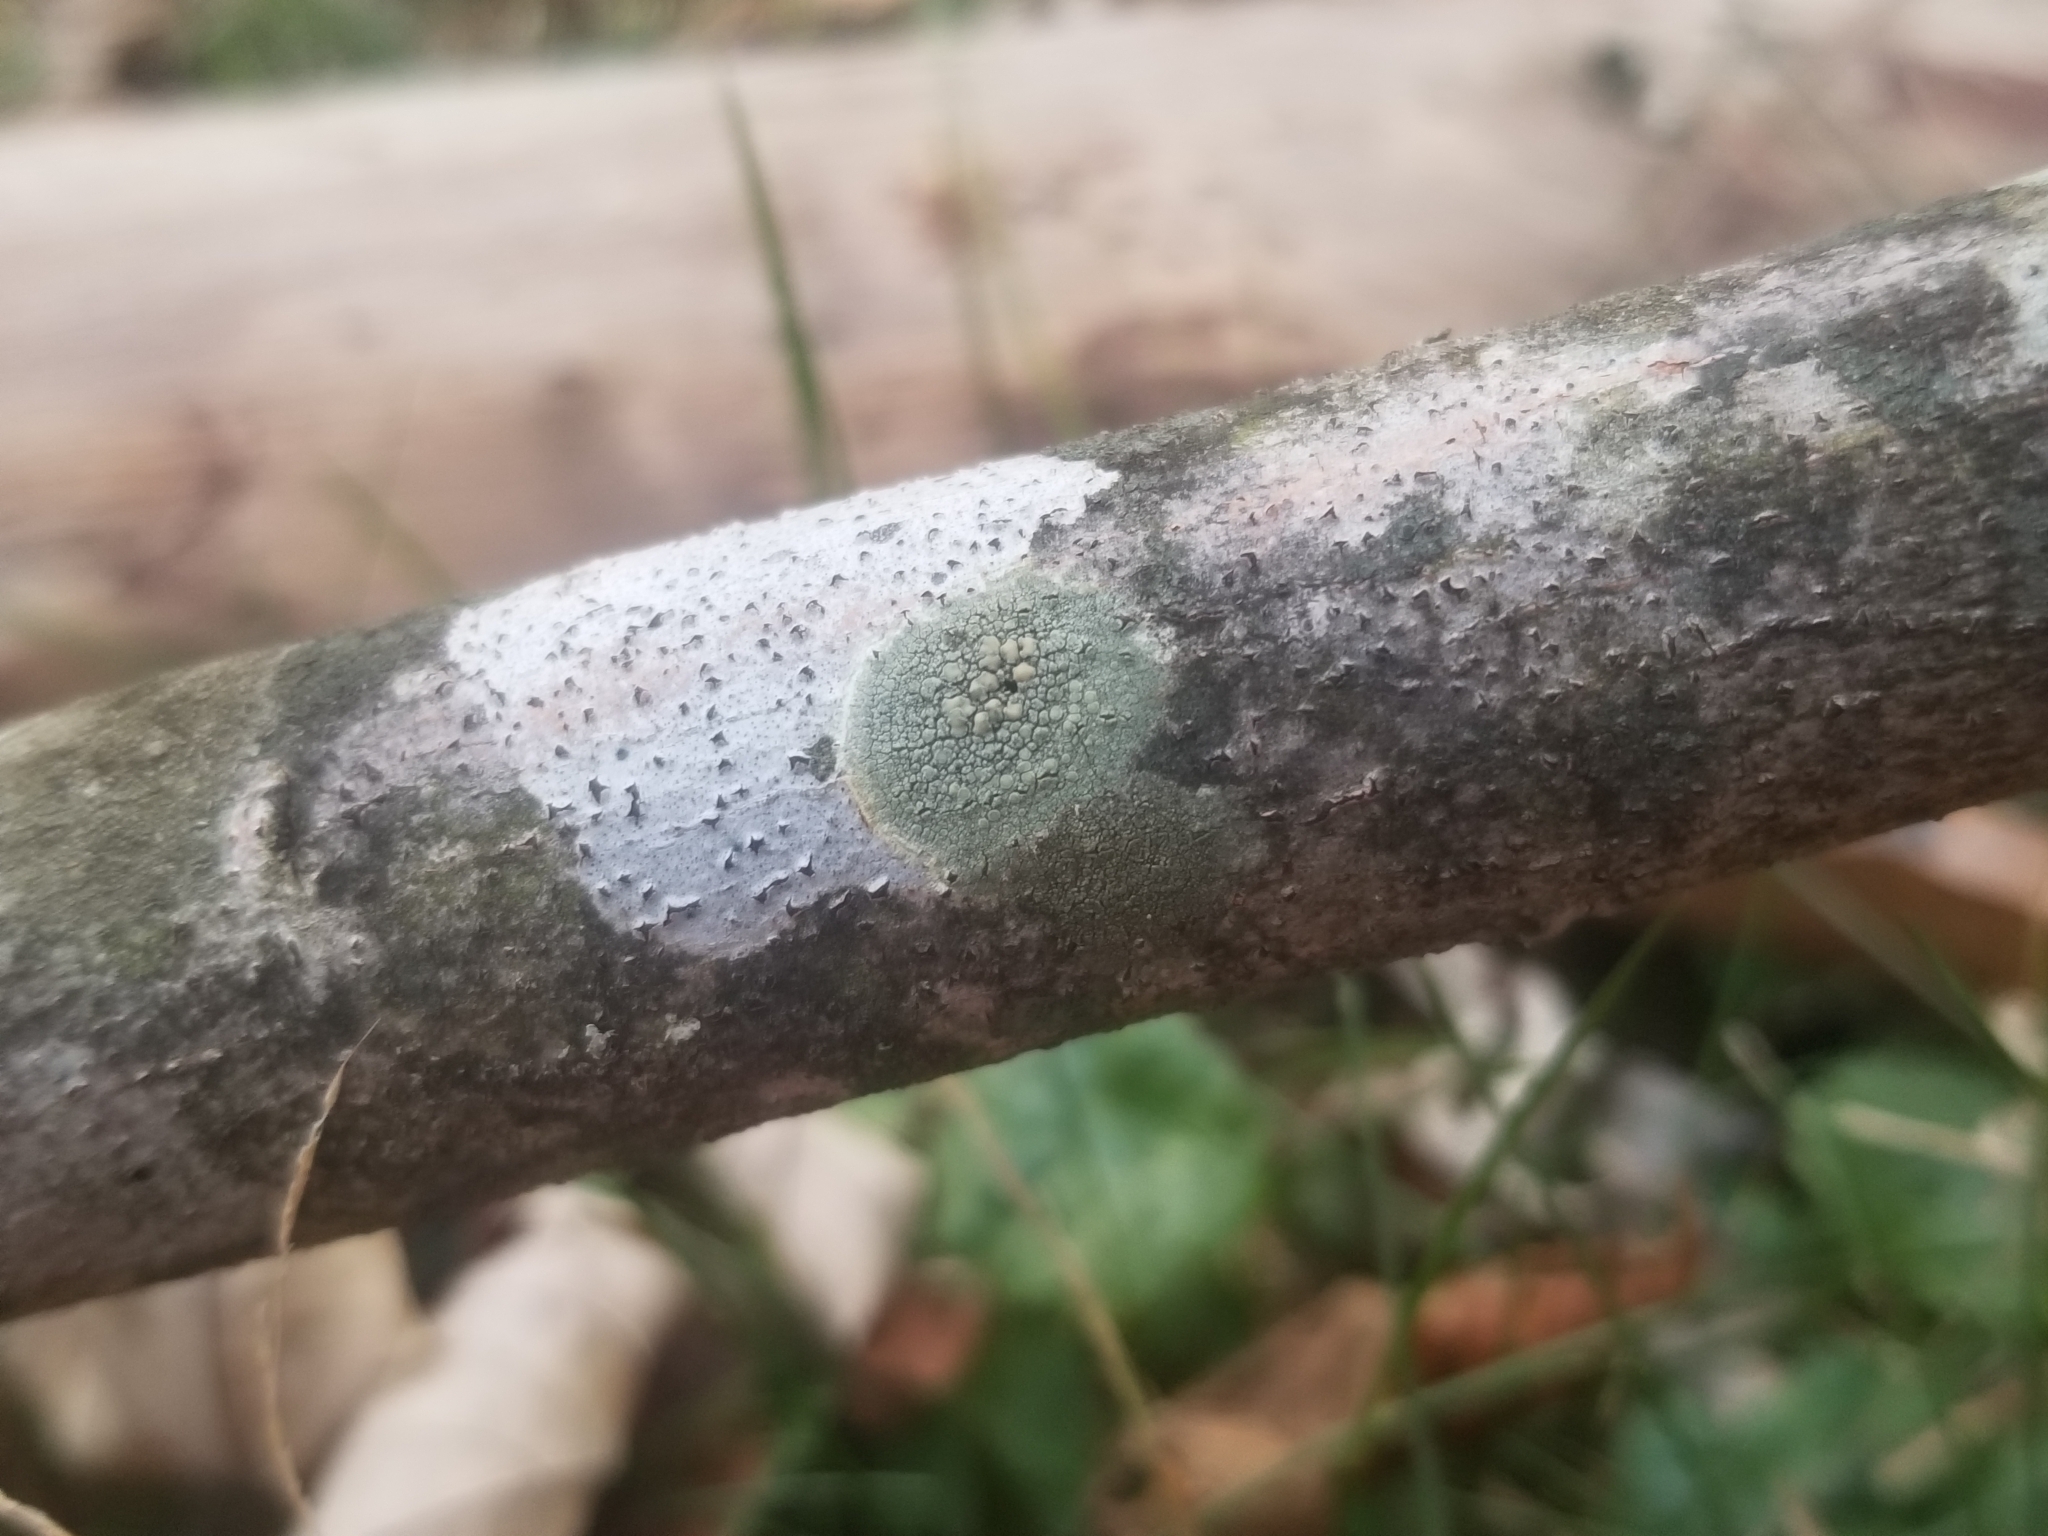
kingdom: Fungi
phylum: Ascomycota
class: Lecanoromycetes
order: Lecanorales
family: Lecanoraceae
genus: Lecanora
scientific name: Lecanora strobilina
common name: Mealy rim-lichen
